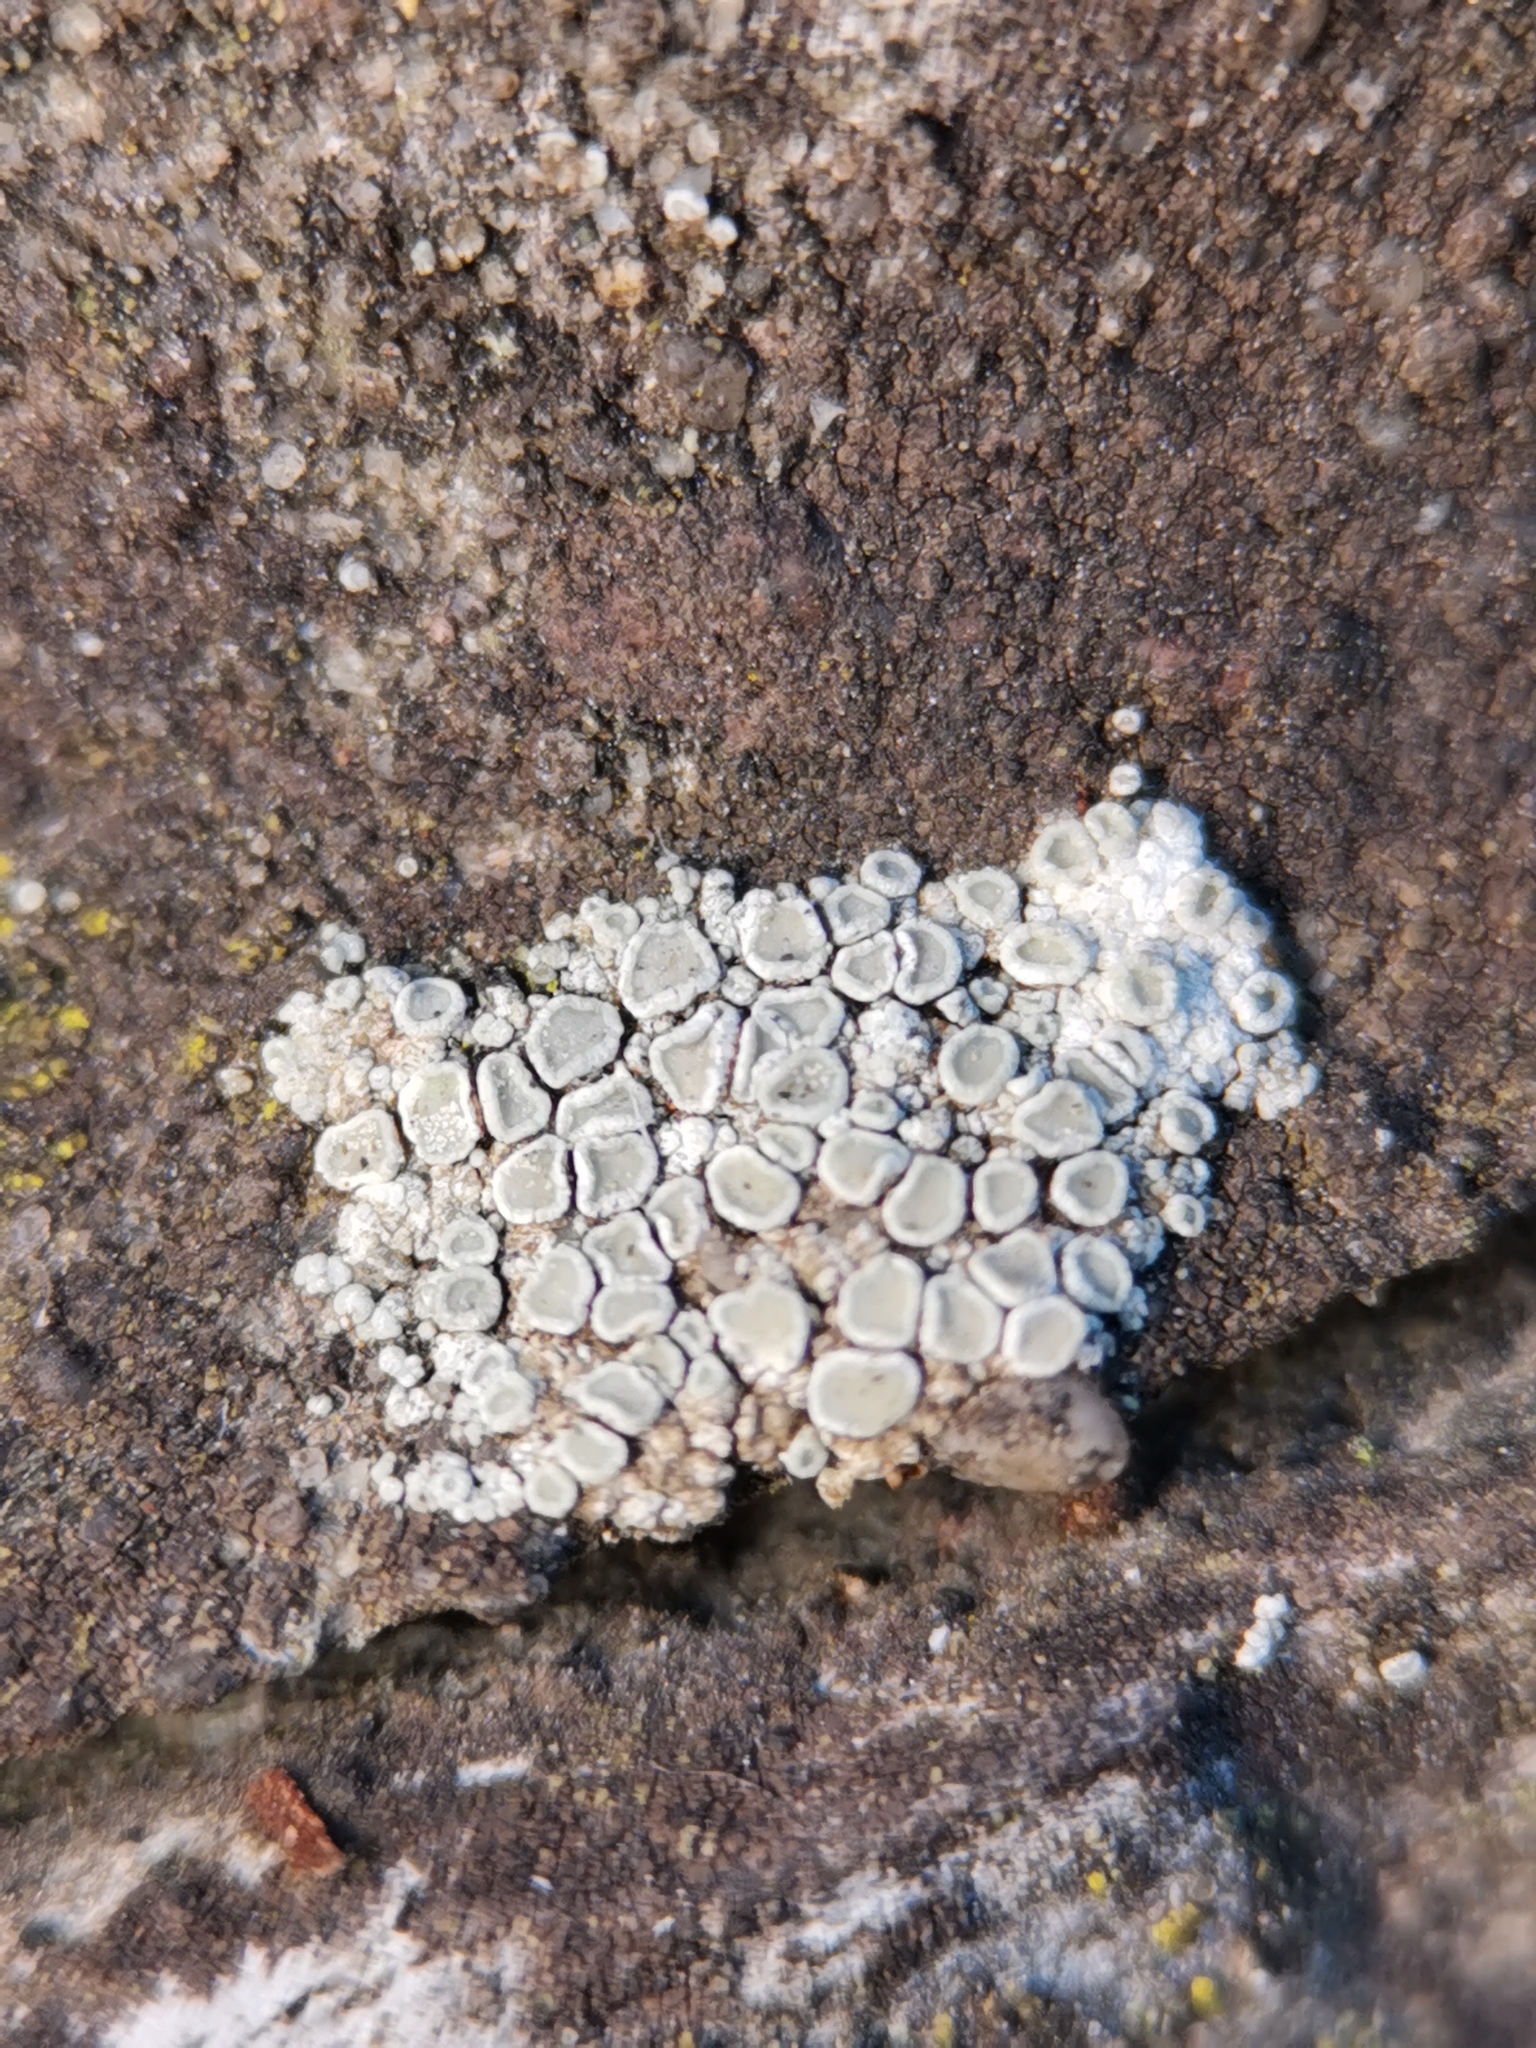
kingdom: Fungi
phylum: Ascomycota
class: Lecanoromycetes
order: Lecanorales
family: Lecanoraceae
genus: Polyozosia
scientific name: Polyozosia albescens
